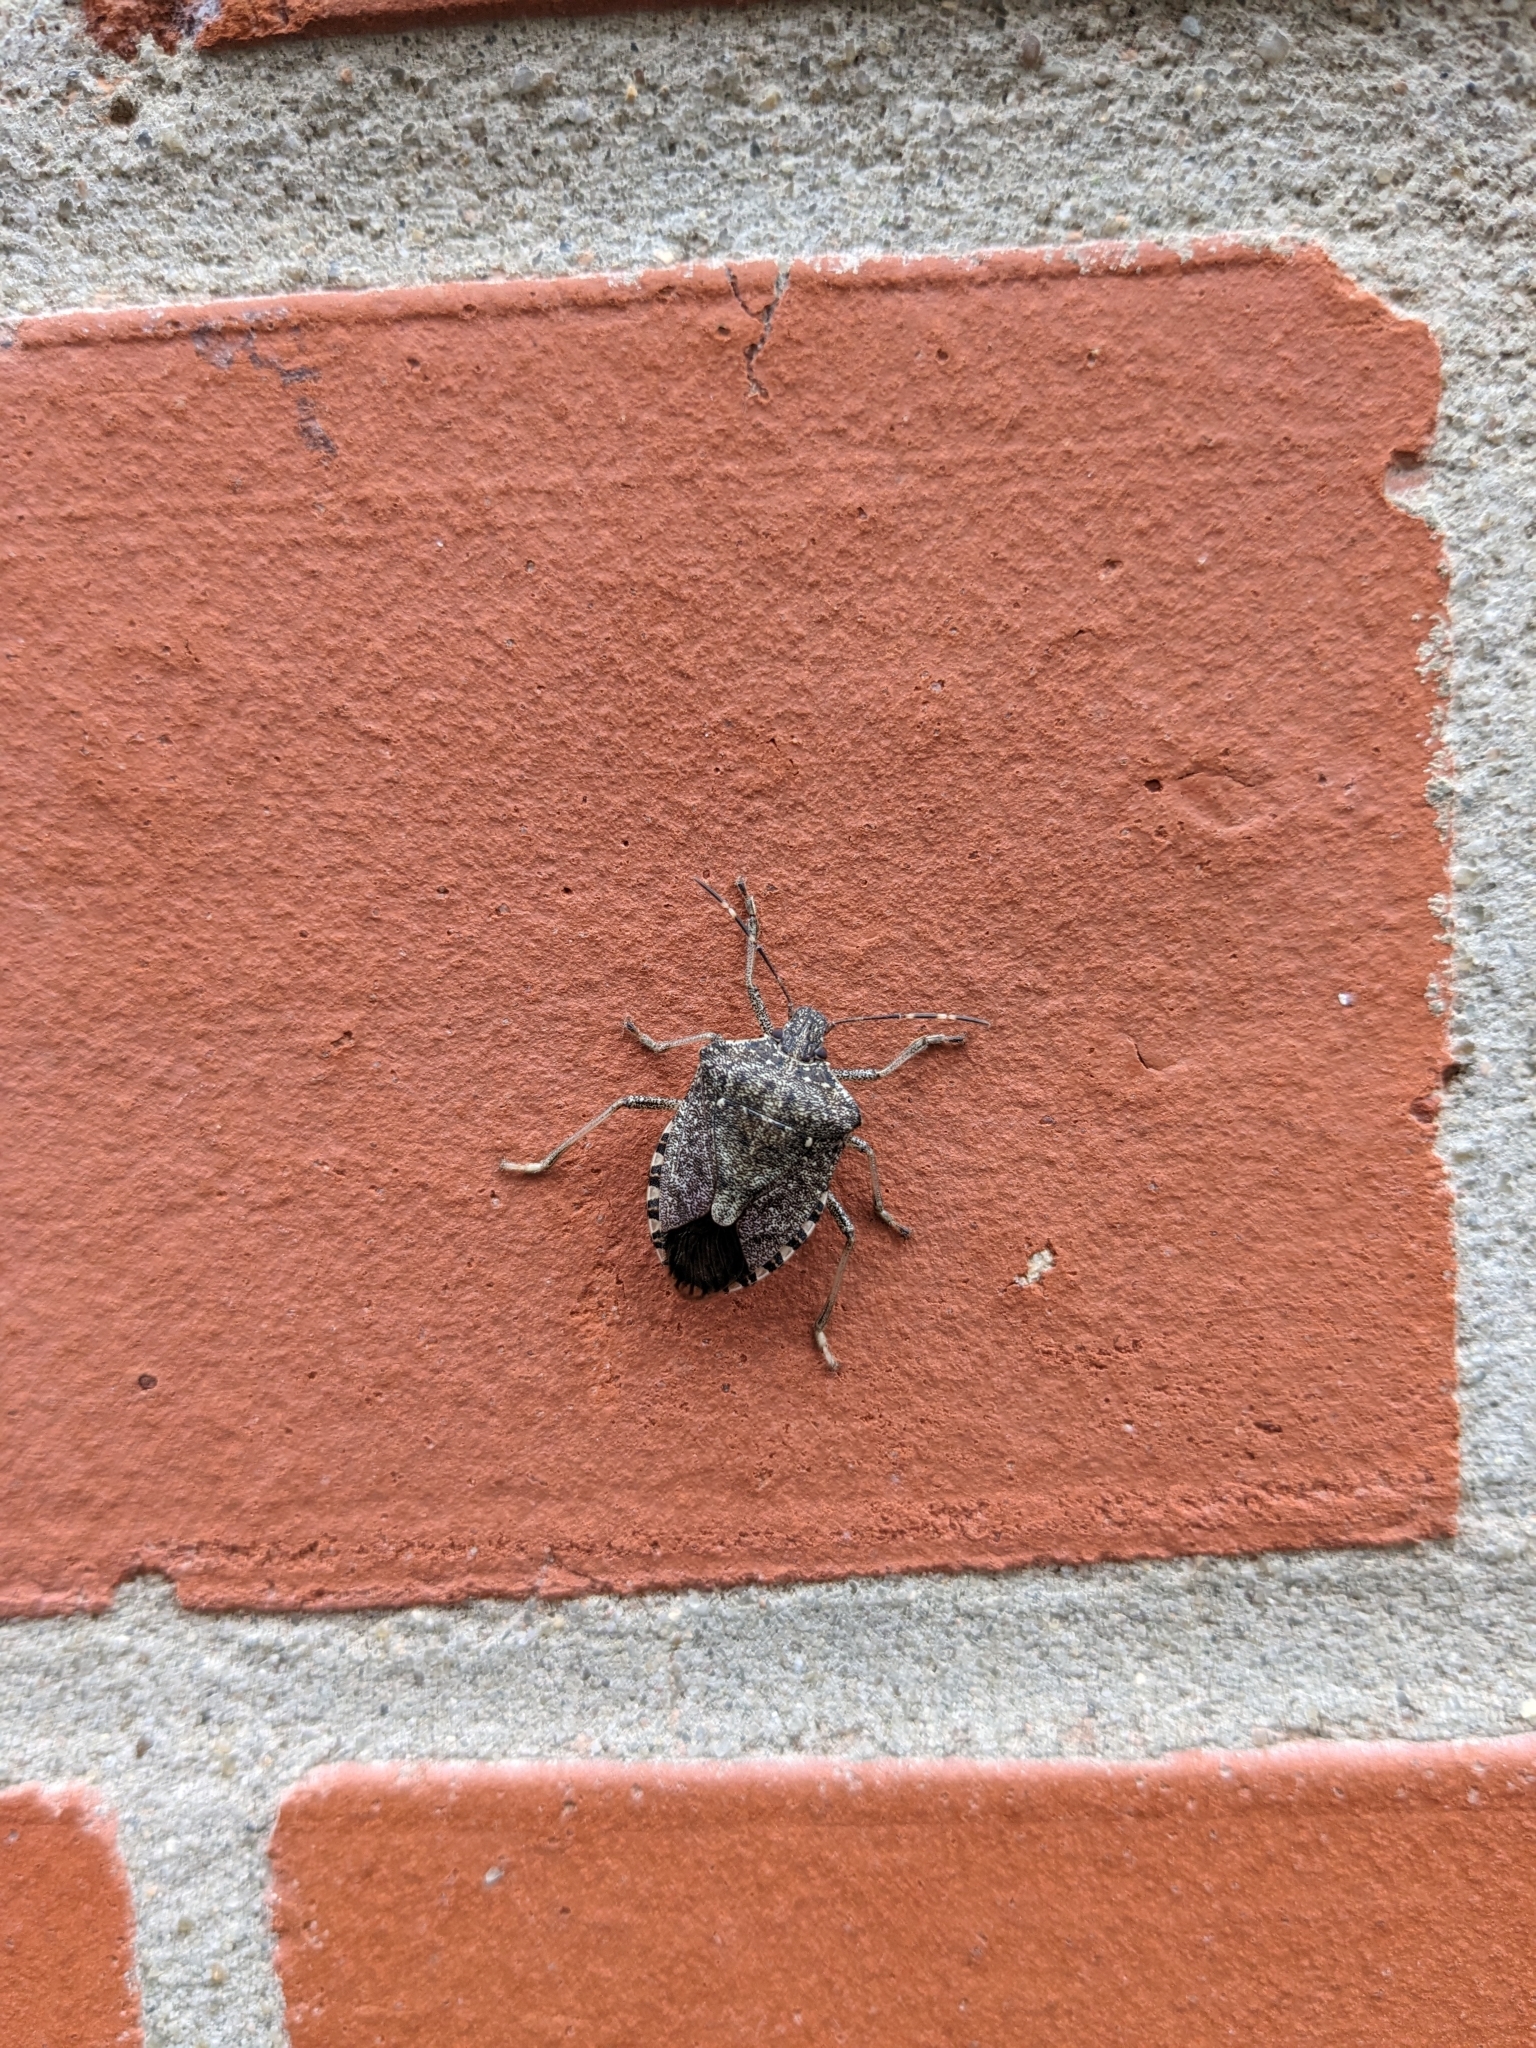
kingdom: Animalia
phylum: Arthropoda
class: Insecta
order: Hemiptera
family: Pentatomidae
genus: Halyomorpha
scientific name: Halyomorpha halys
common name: Brown marmorated stink bug
